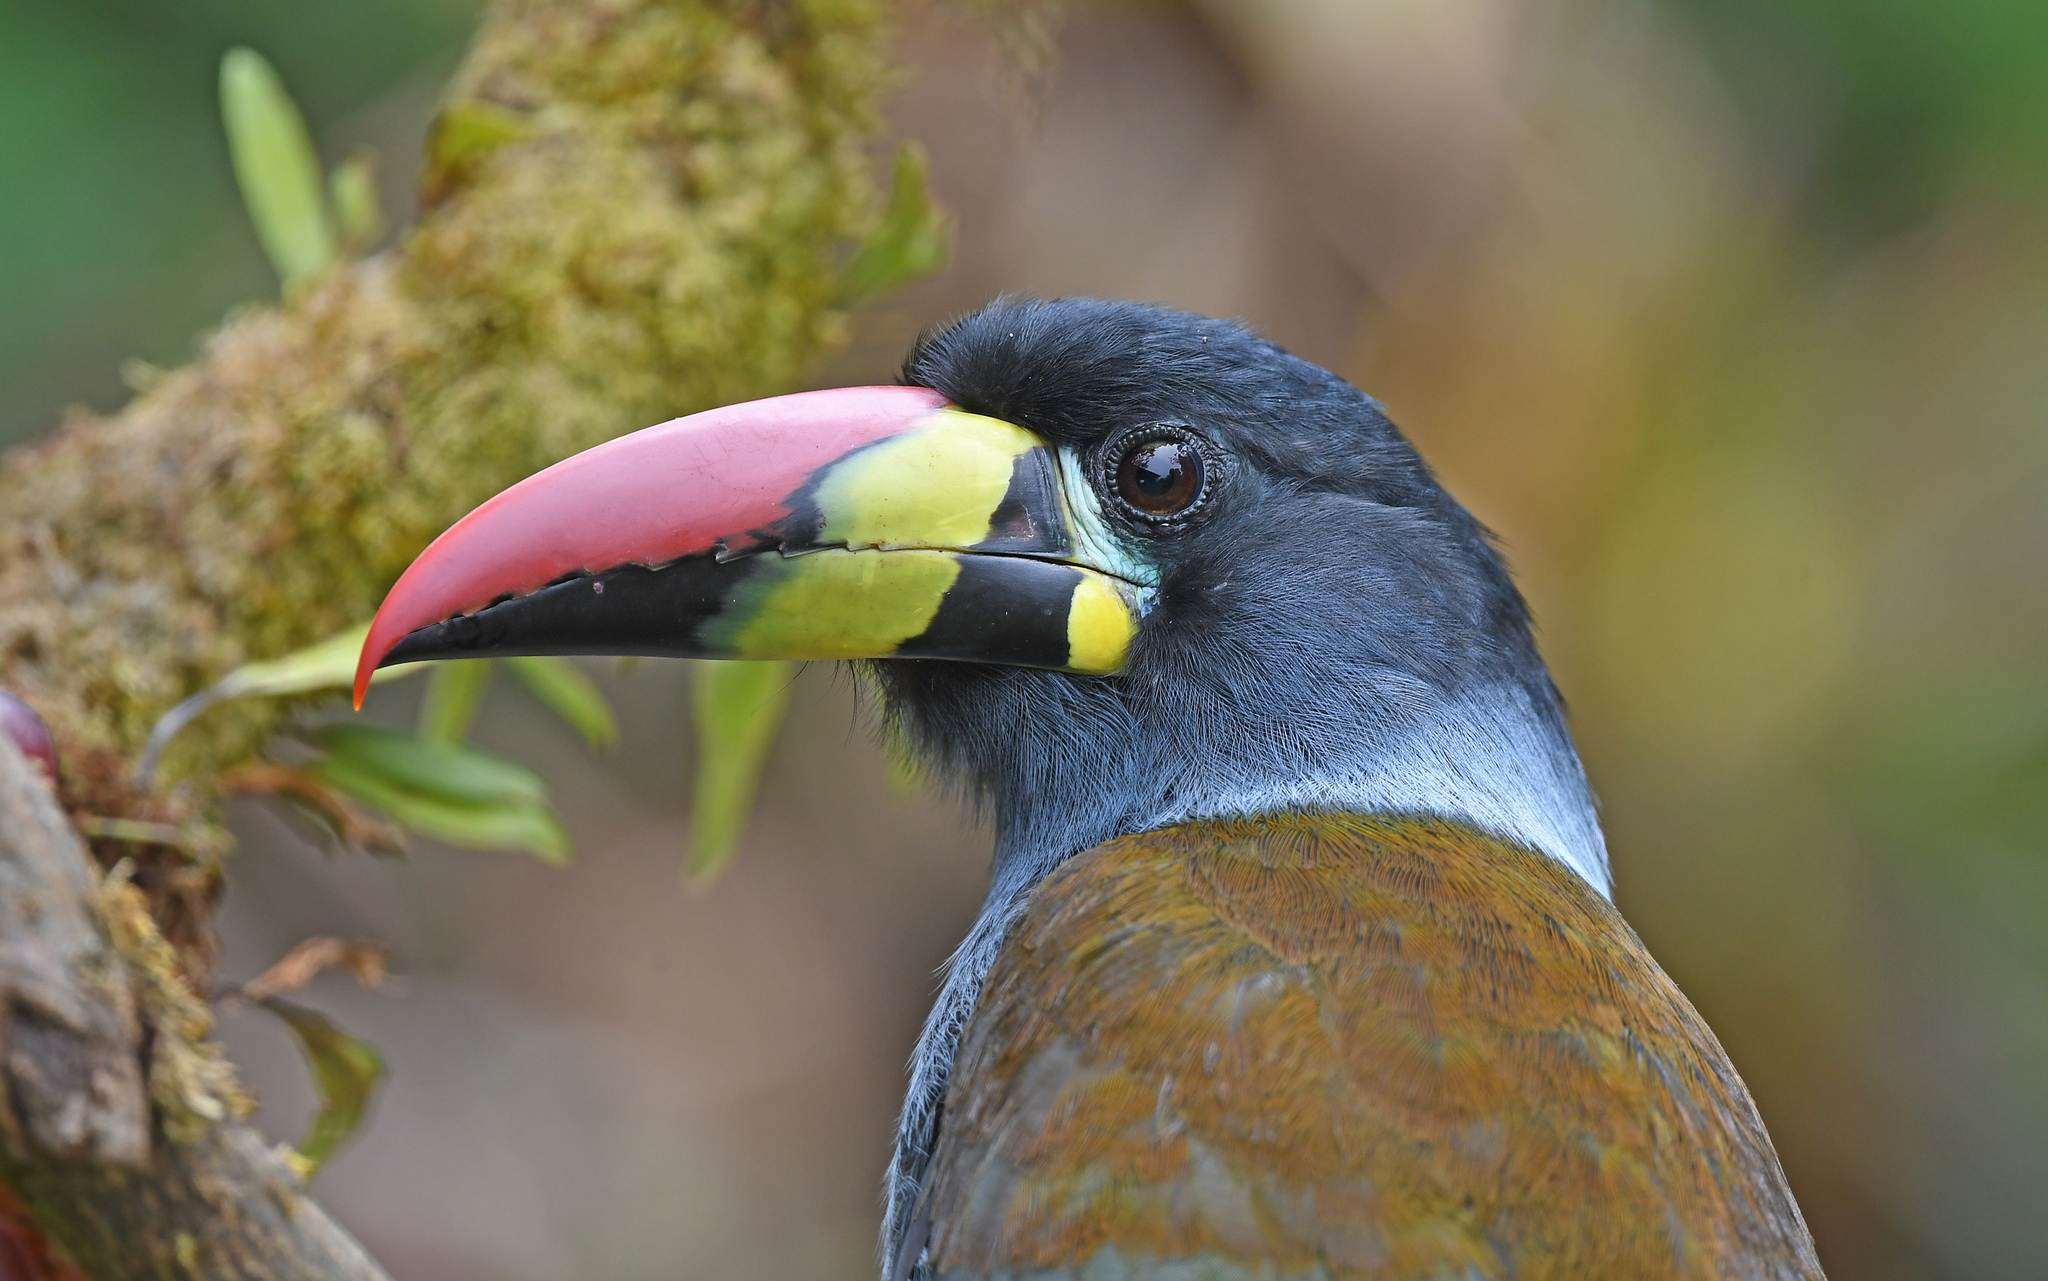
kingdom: Animalia
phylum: Chordata
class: Aves
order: Piciformes
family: Ramphastidae
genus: Andigena
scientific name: Andigena hypoglauca
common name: Grey-breasted mountain toucan
